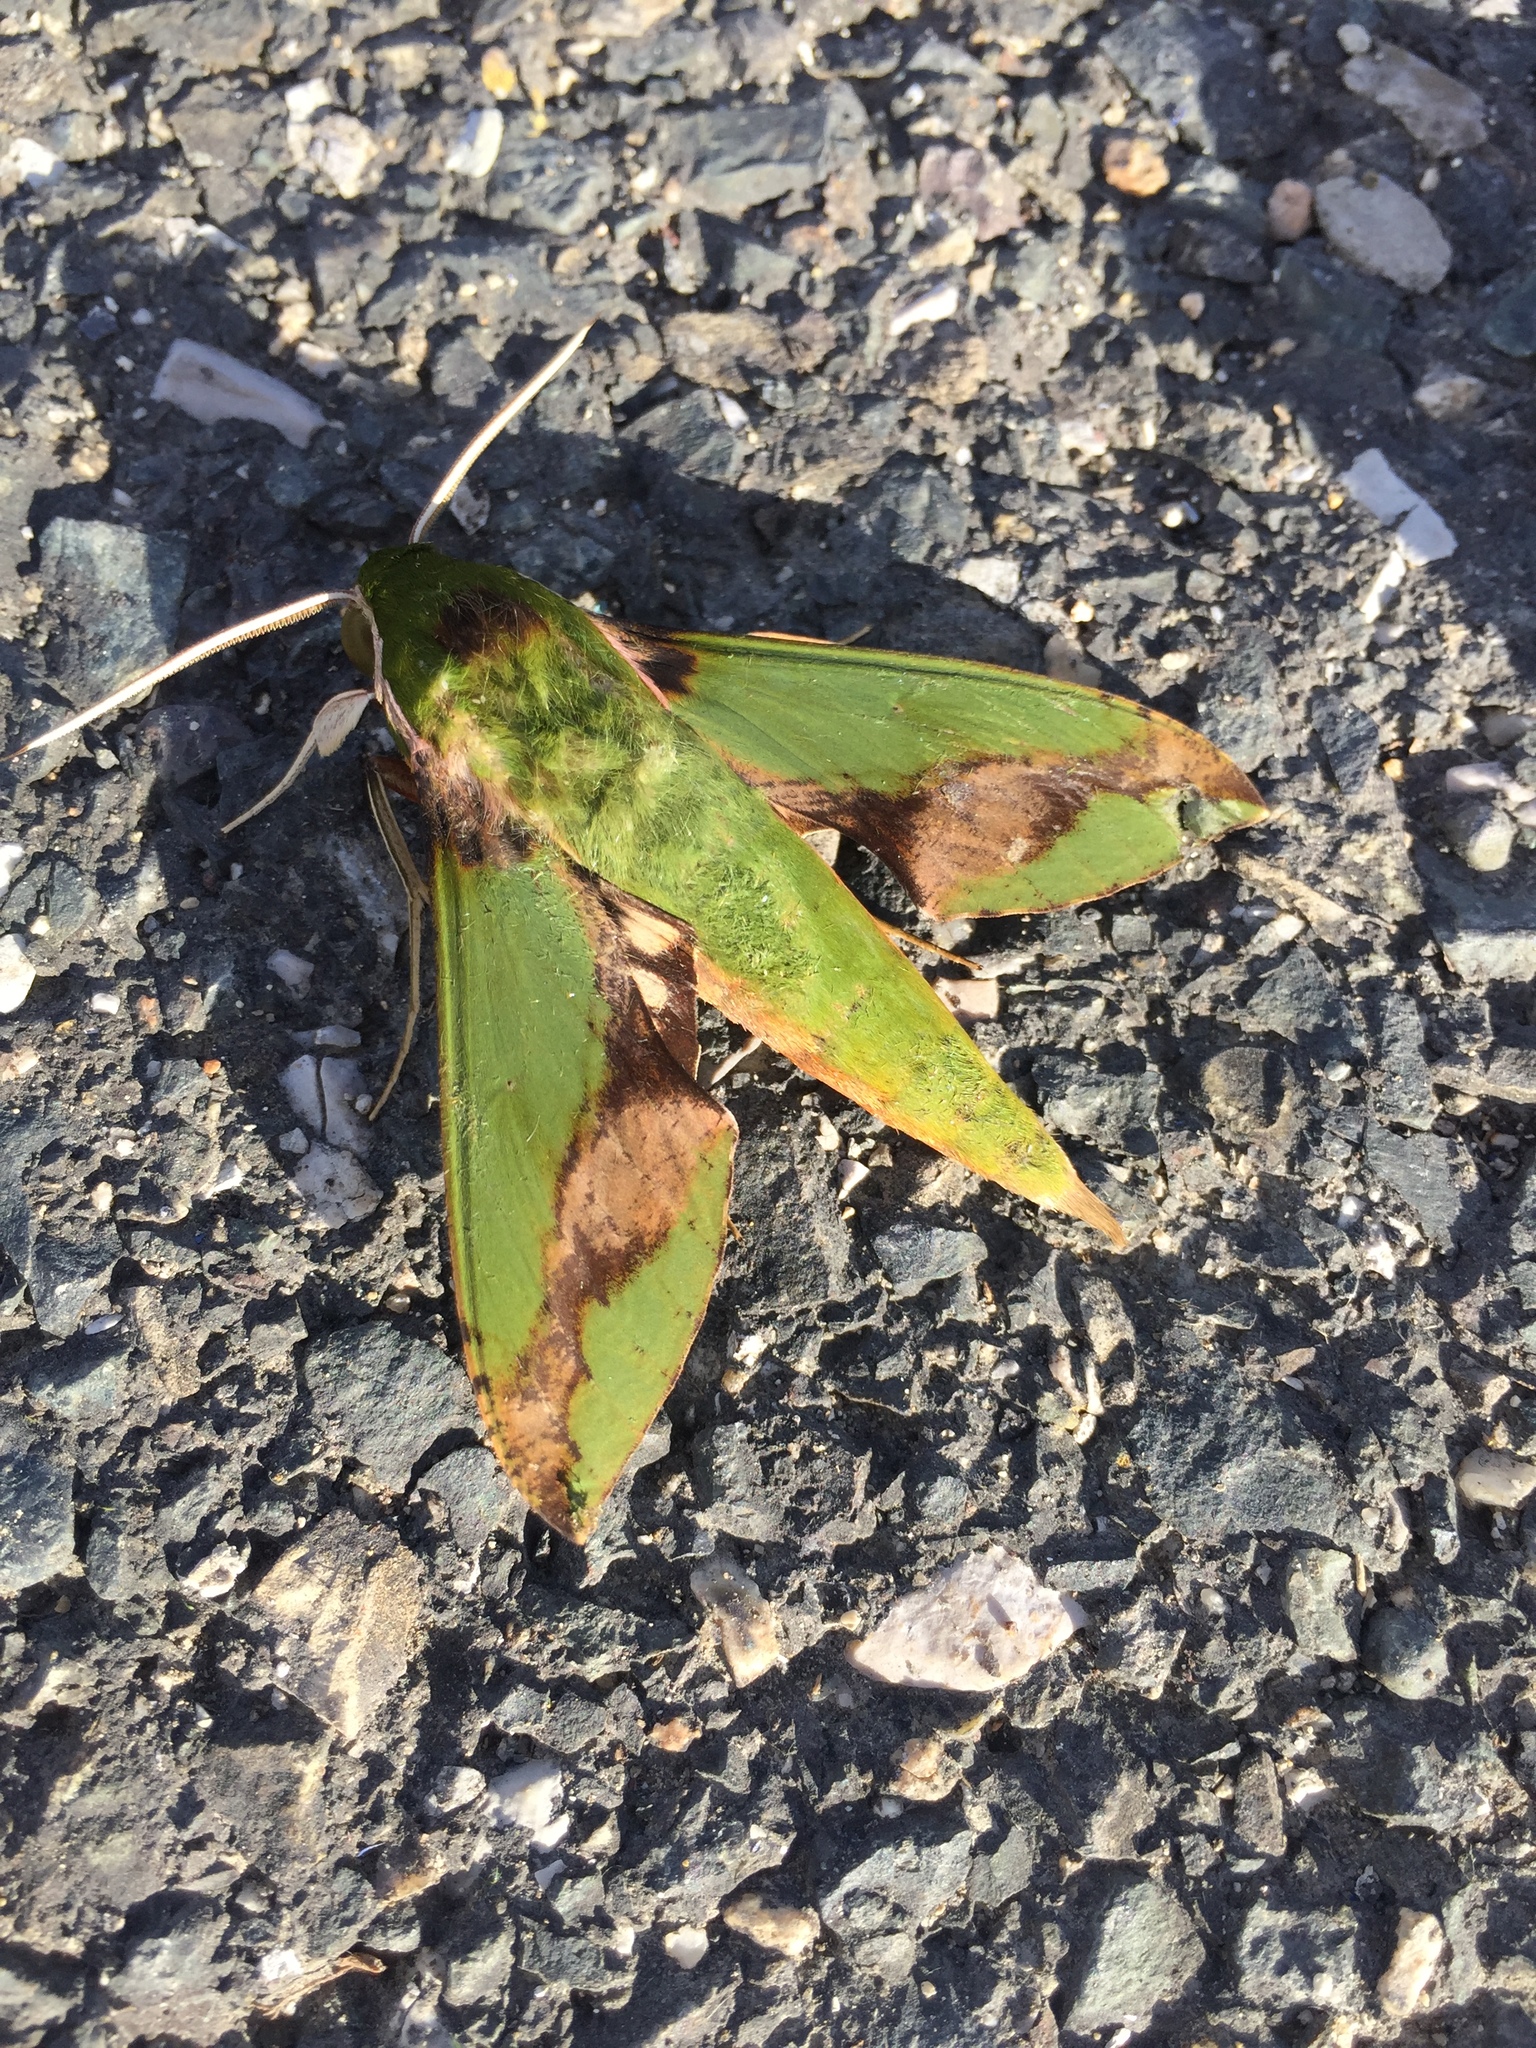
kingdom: Animalia
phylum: Arthropoda
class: Insecta
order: Lepidoptera
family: Sphingidae
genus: Xylophanes
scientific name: Xylophanes chiron
